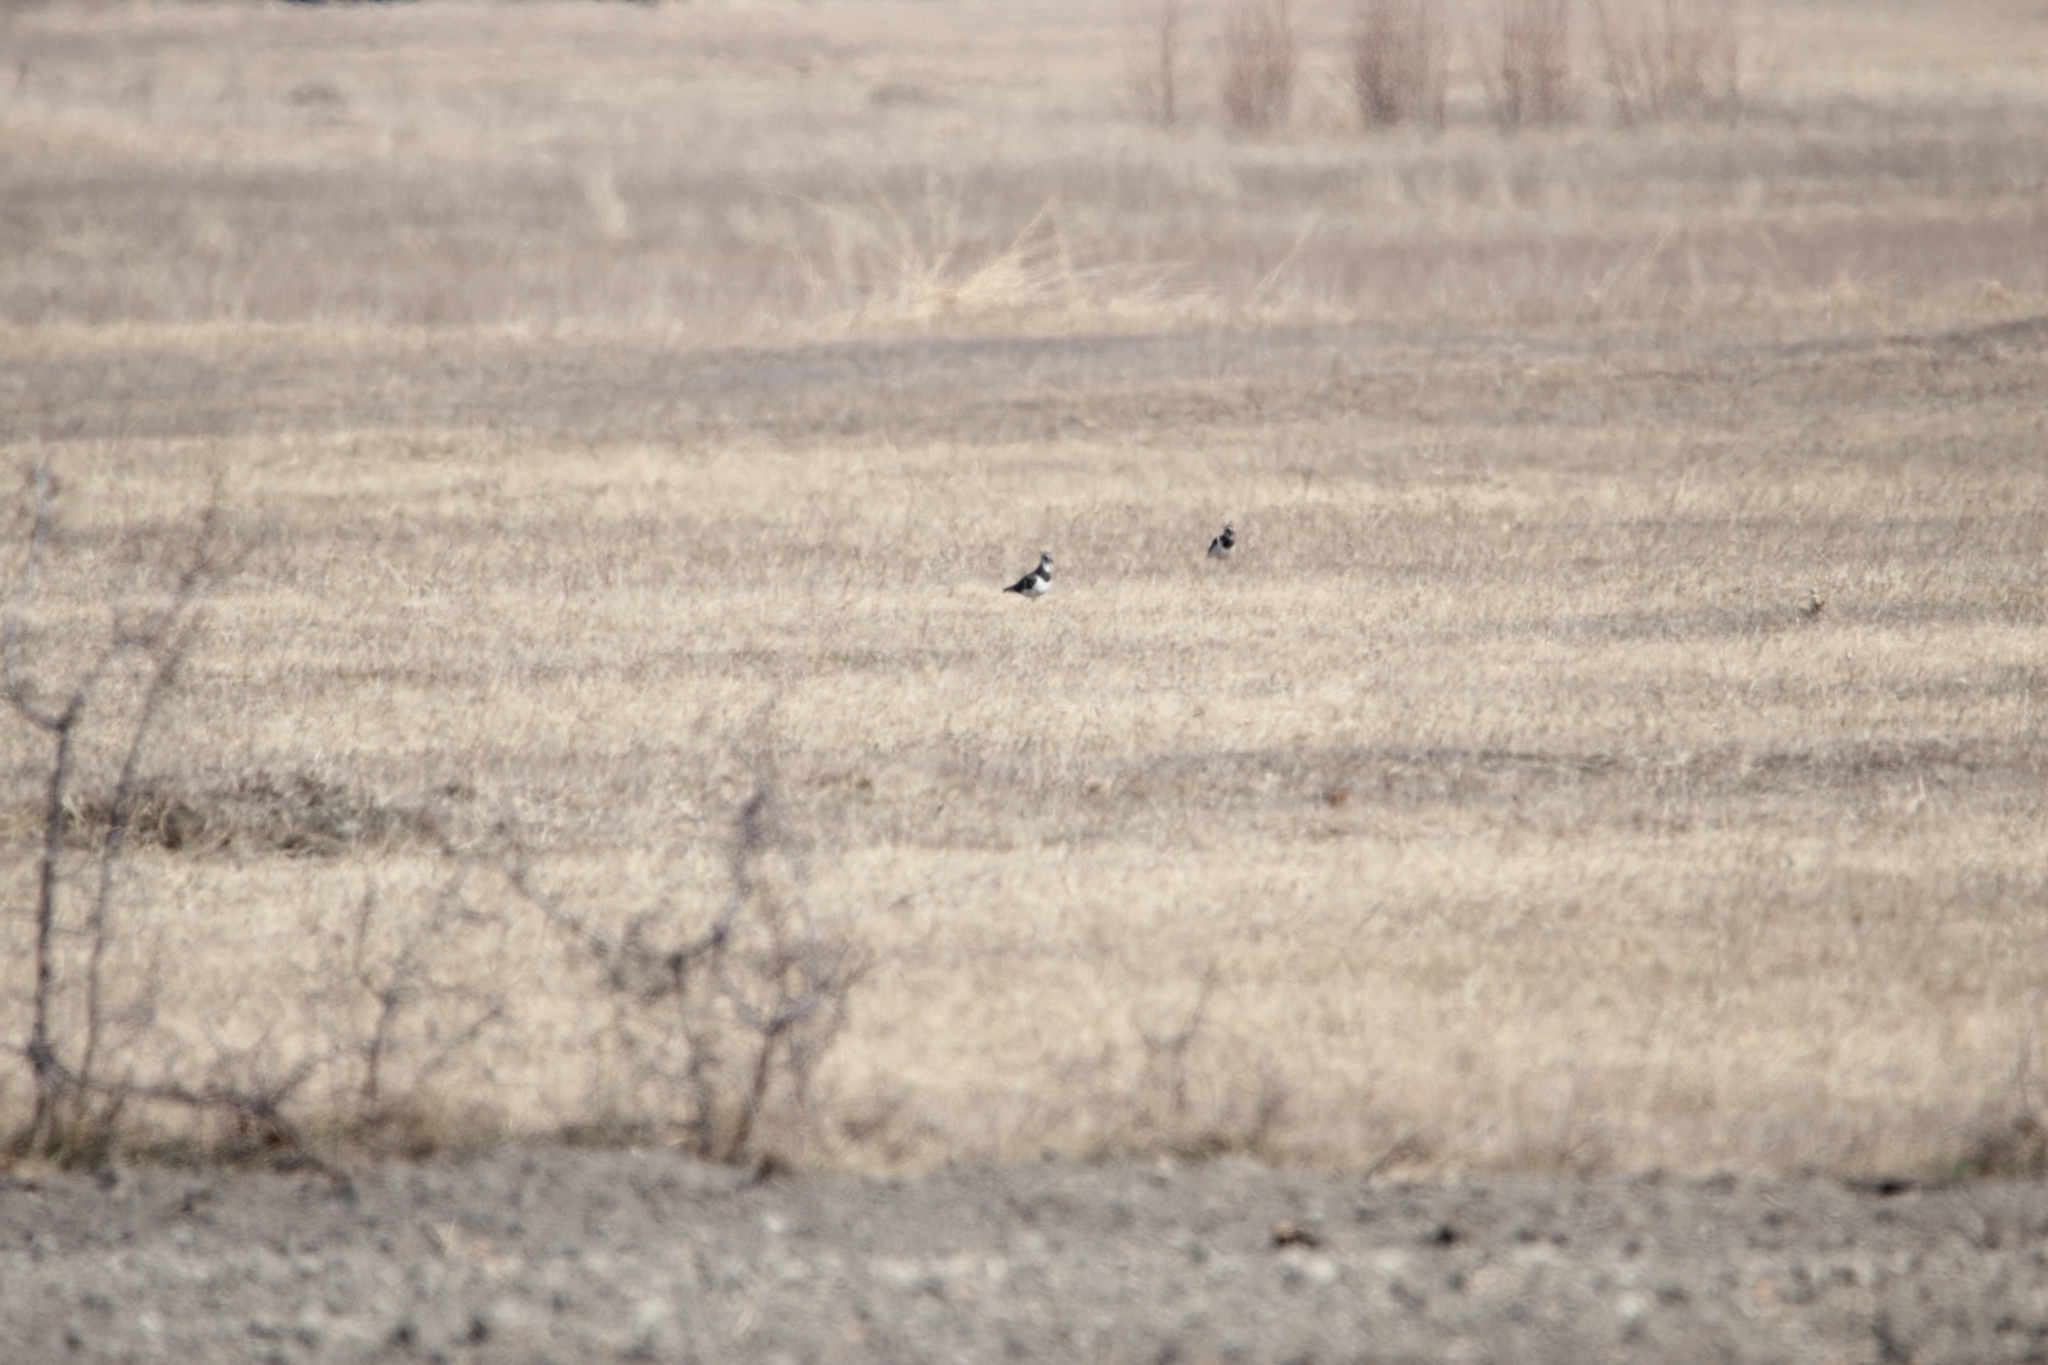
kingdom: Animalia
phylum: Chordata
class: Aves
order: Charadriiformes
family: Charadriidae
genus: Vanellus
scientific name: Vanellus vanellus
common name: Northern lapwing
